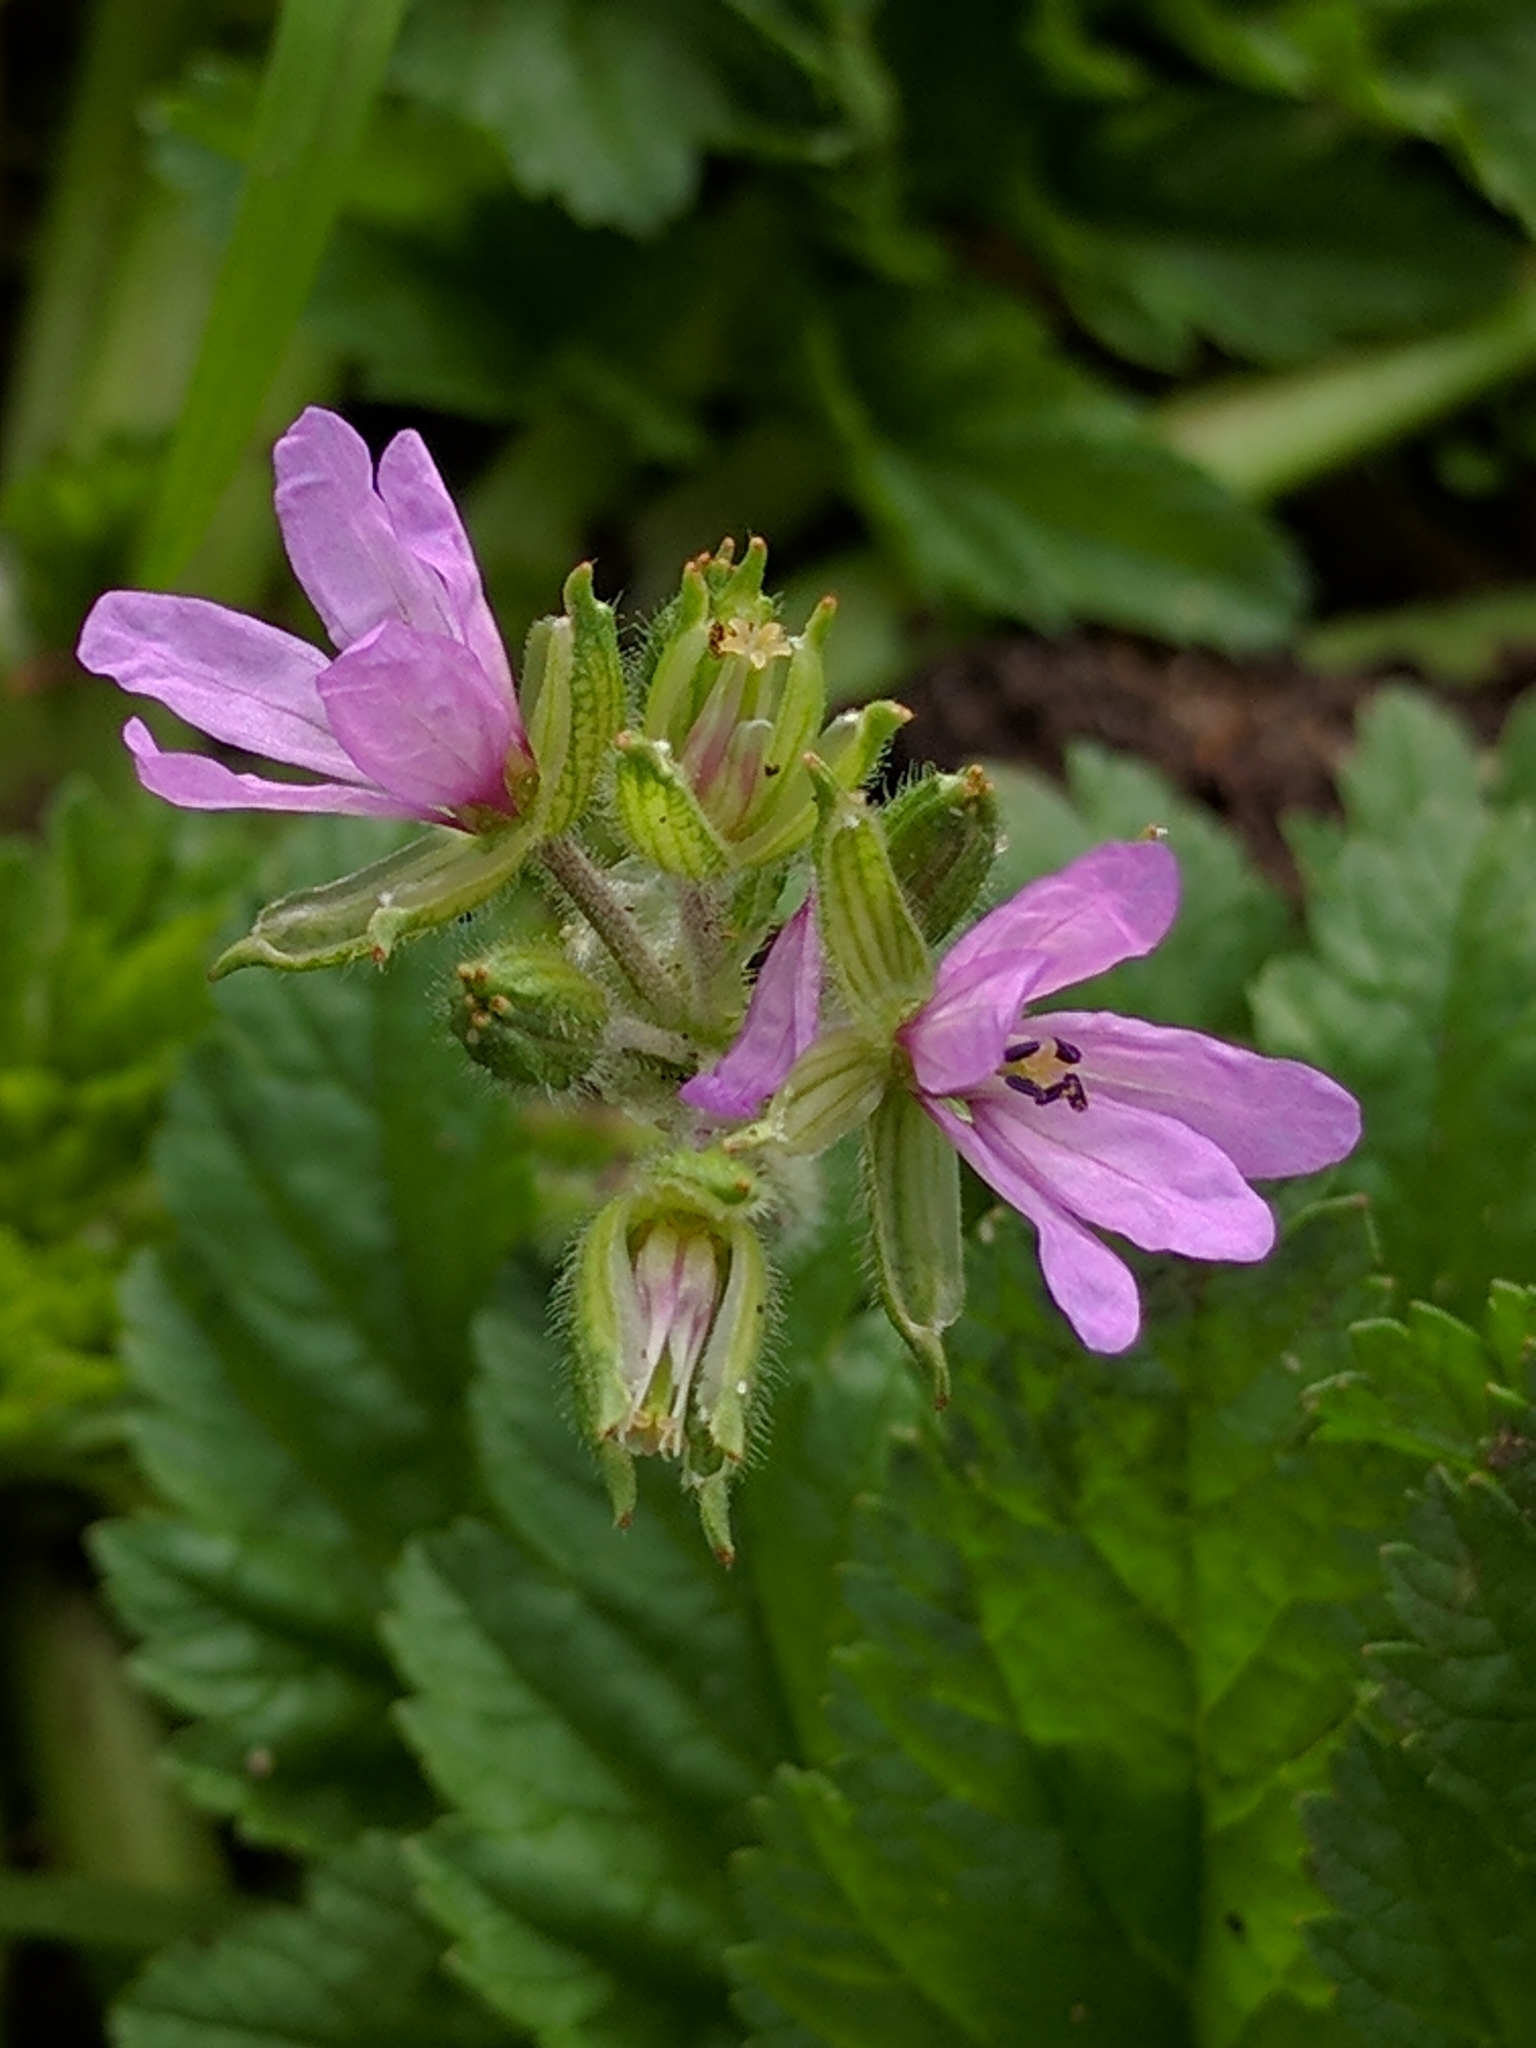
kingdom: Plantae
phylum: Tracheophyta
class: Magnoliopsida
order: Geraniales
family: Geraniaceae
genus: Erodium
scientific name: Erodium moschatum
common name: Musk stork's-bill
